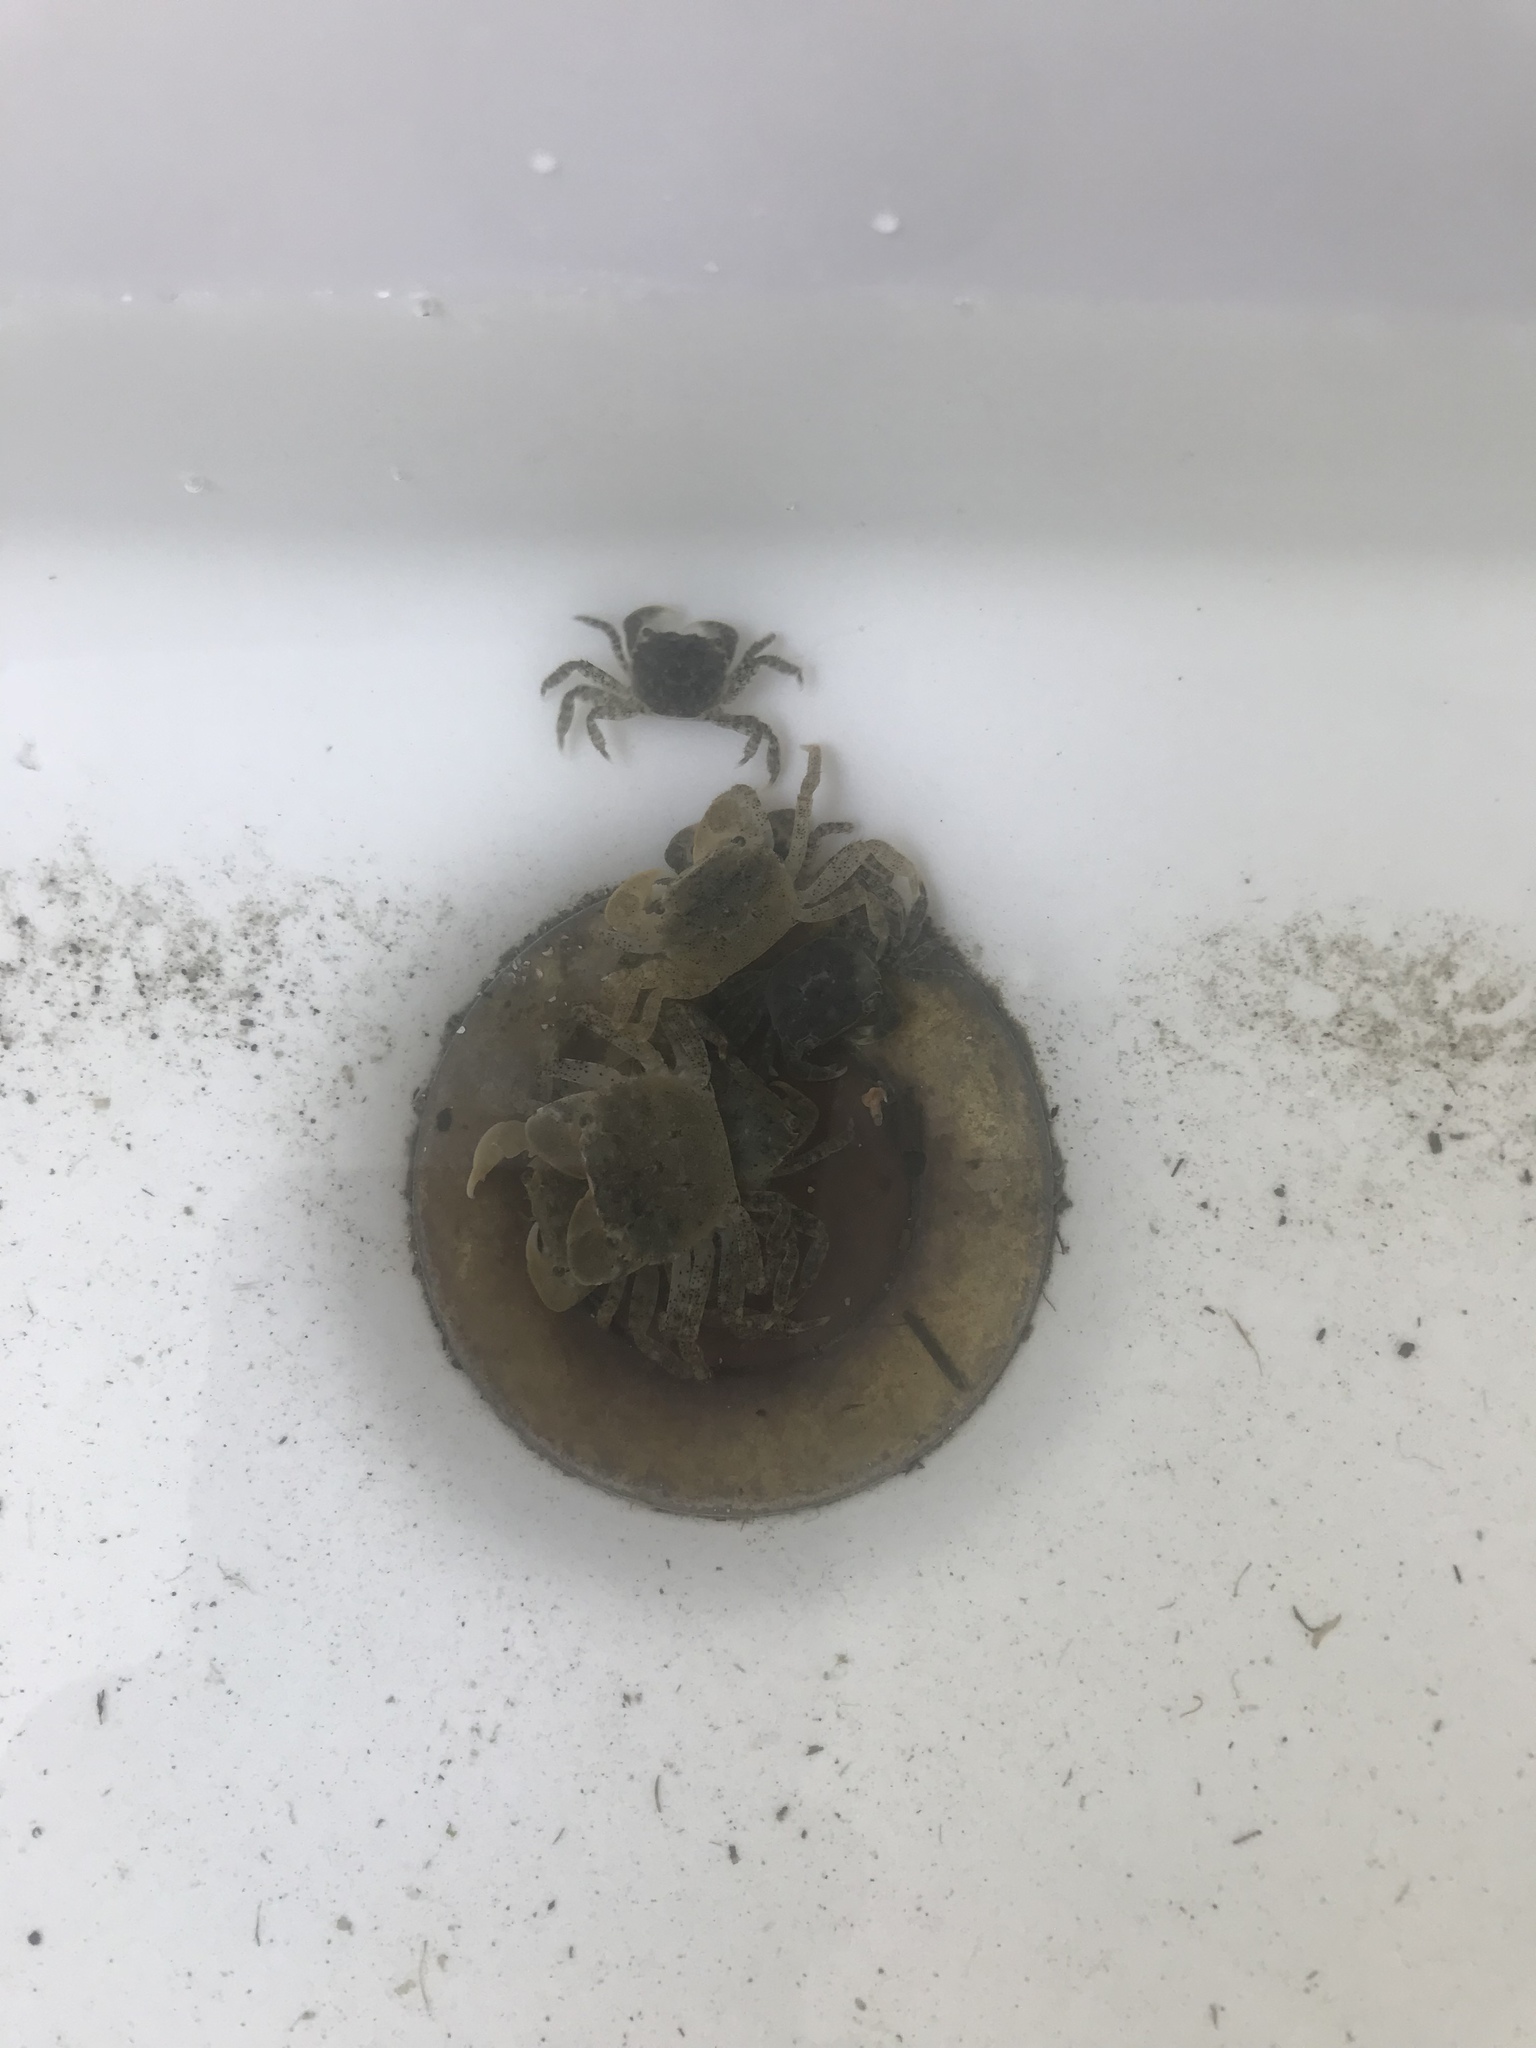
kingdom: Animalia
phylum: Arthropoda
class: Malacostraca
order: Decapoda
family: Varunidae
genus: Hemigrapsus
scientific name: Hemigrapsus oregonensis
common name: Yellow shore crab
